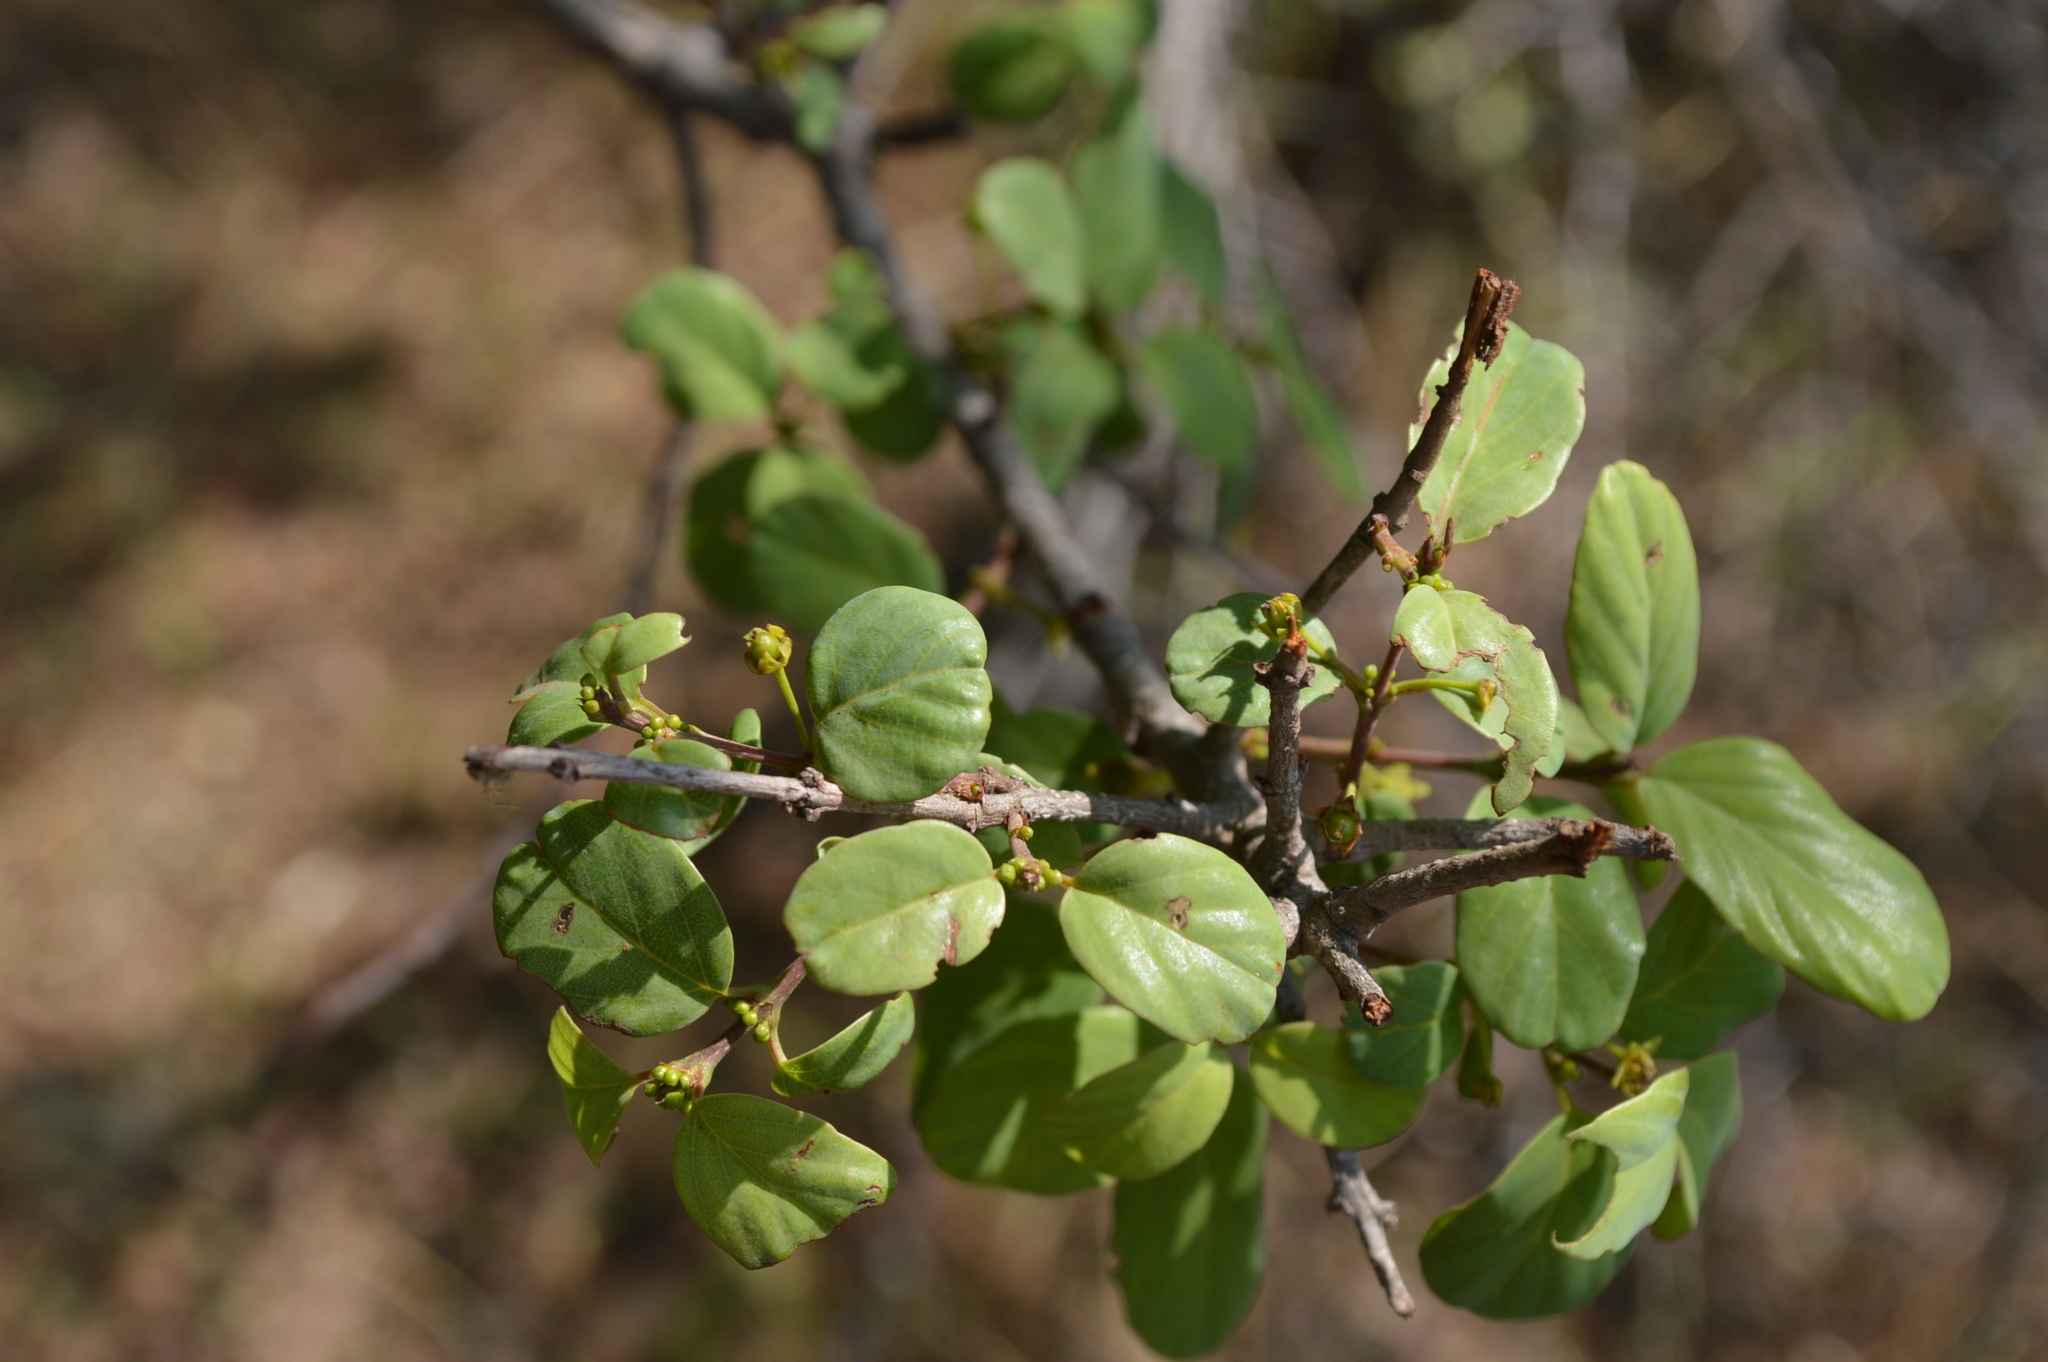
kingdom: Plantae
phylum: Tracheophyta
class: Magnoliopsida
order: Rosales
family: Rhamnaceae
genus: Phyllogeiton
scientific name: Phyllogeiton zeyheri
